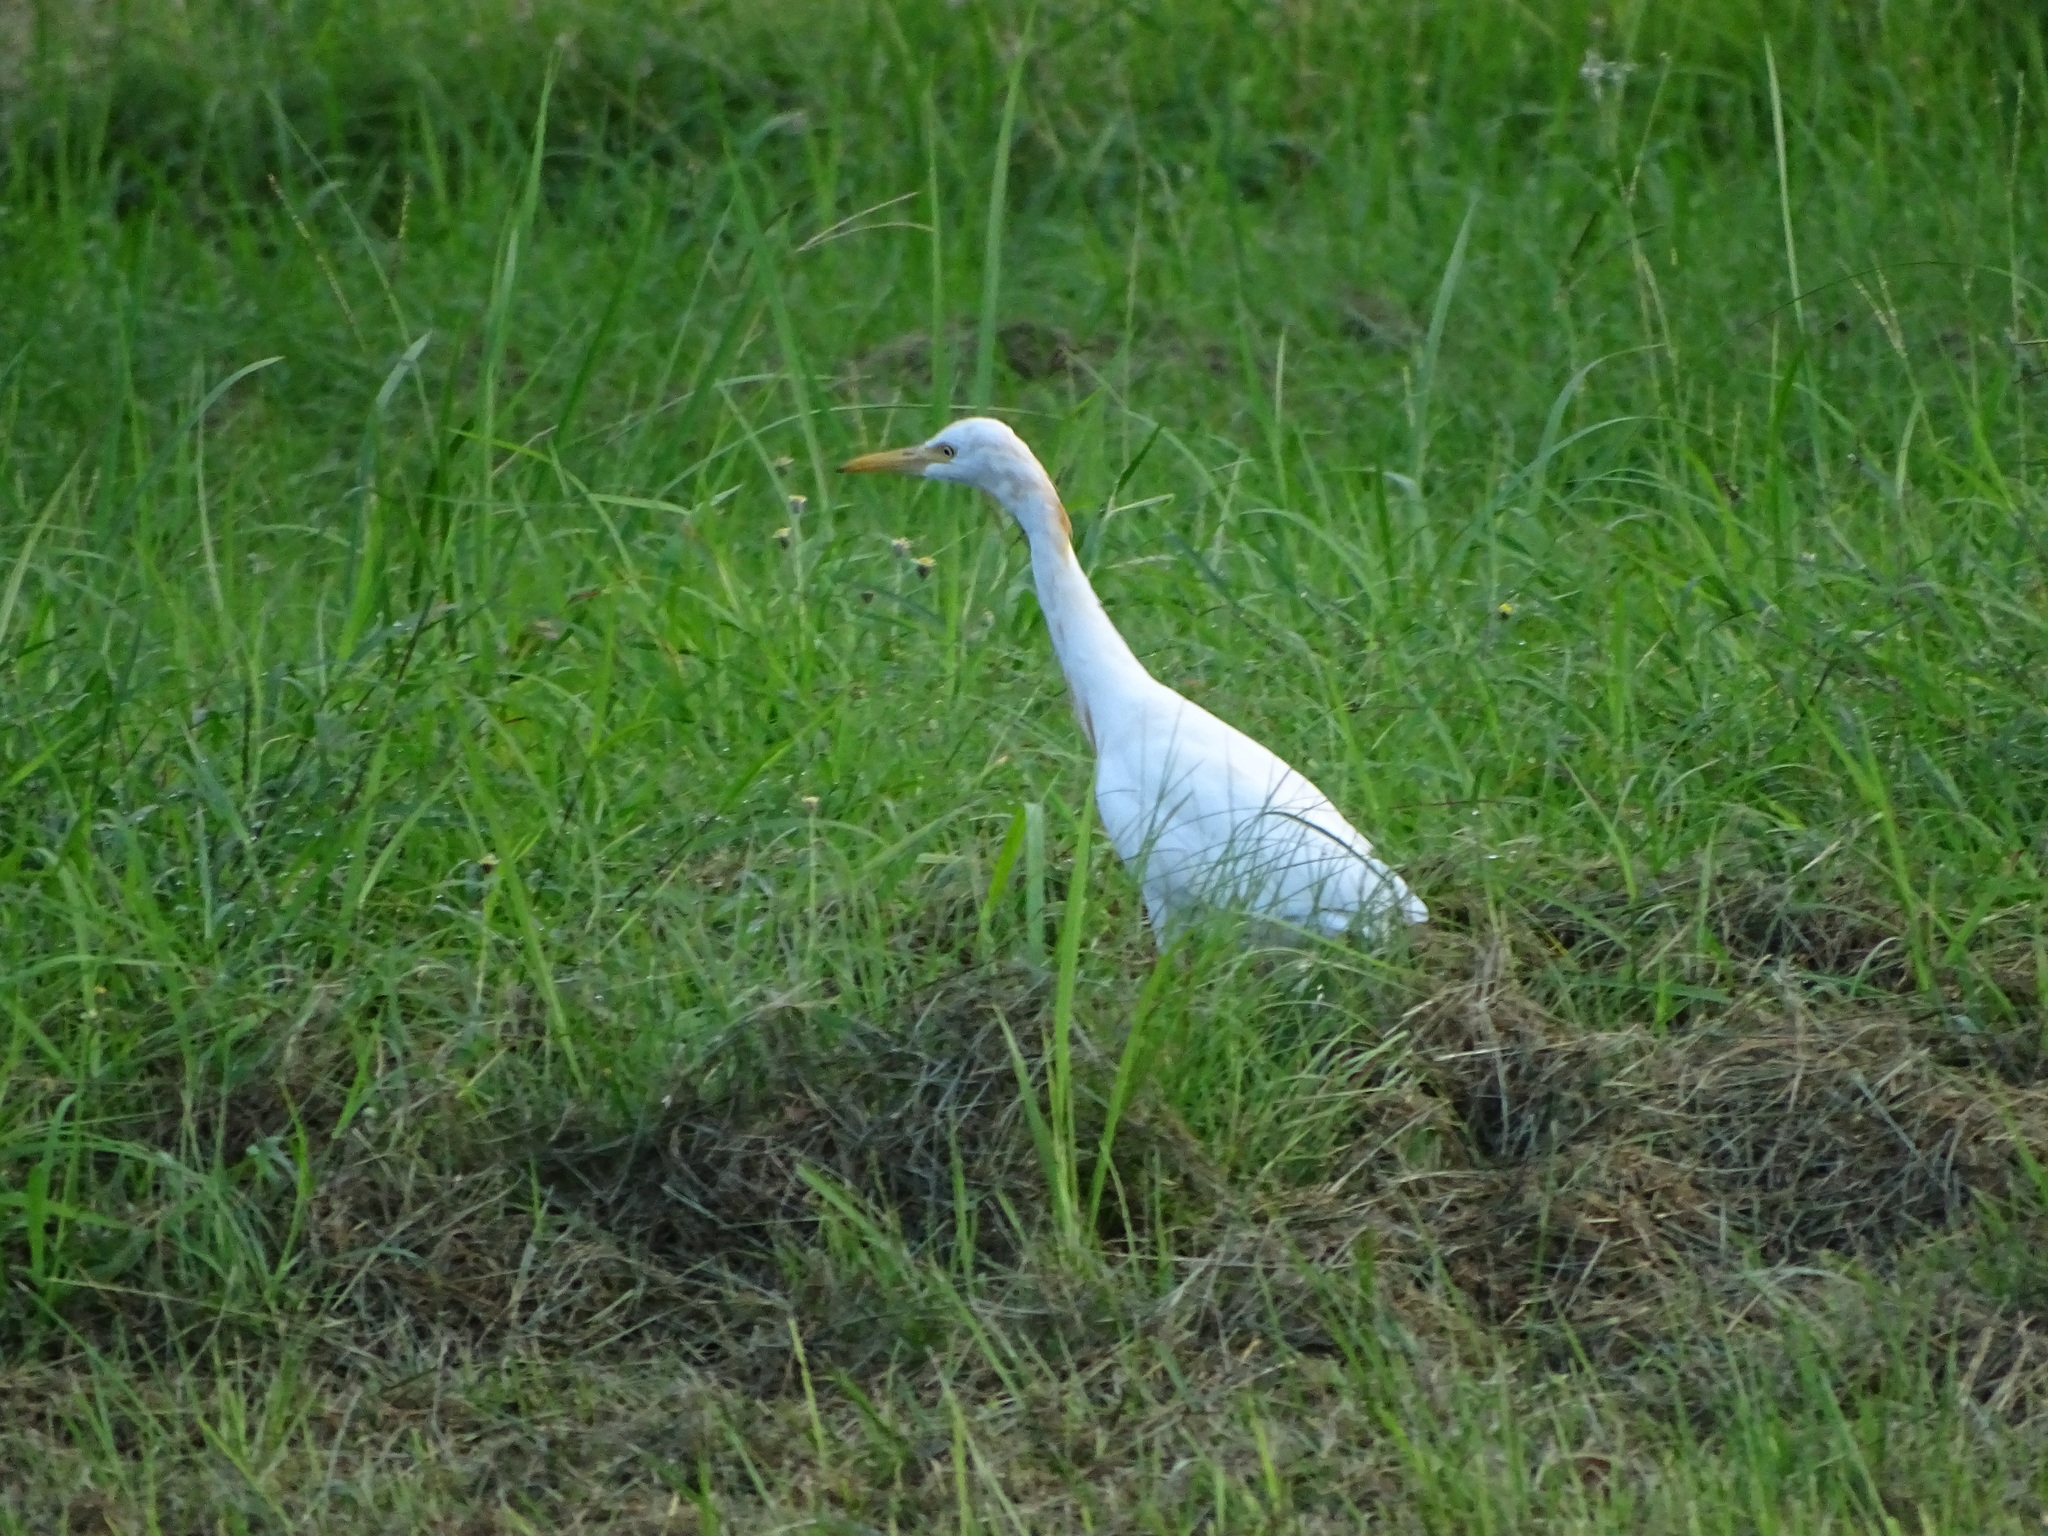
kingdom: Animalia
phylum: Chordata
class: Aves
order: Pelecaniformes
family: Ardeidae
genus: Bubulcus
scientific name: Bubulcus coromandus
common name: Eastern cattle egret
